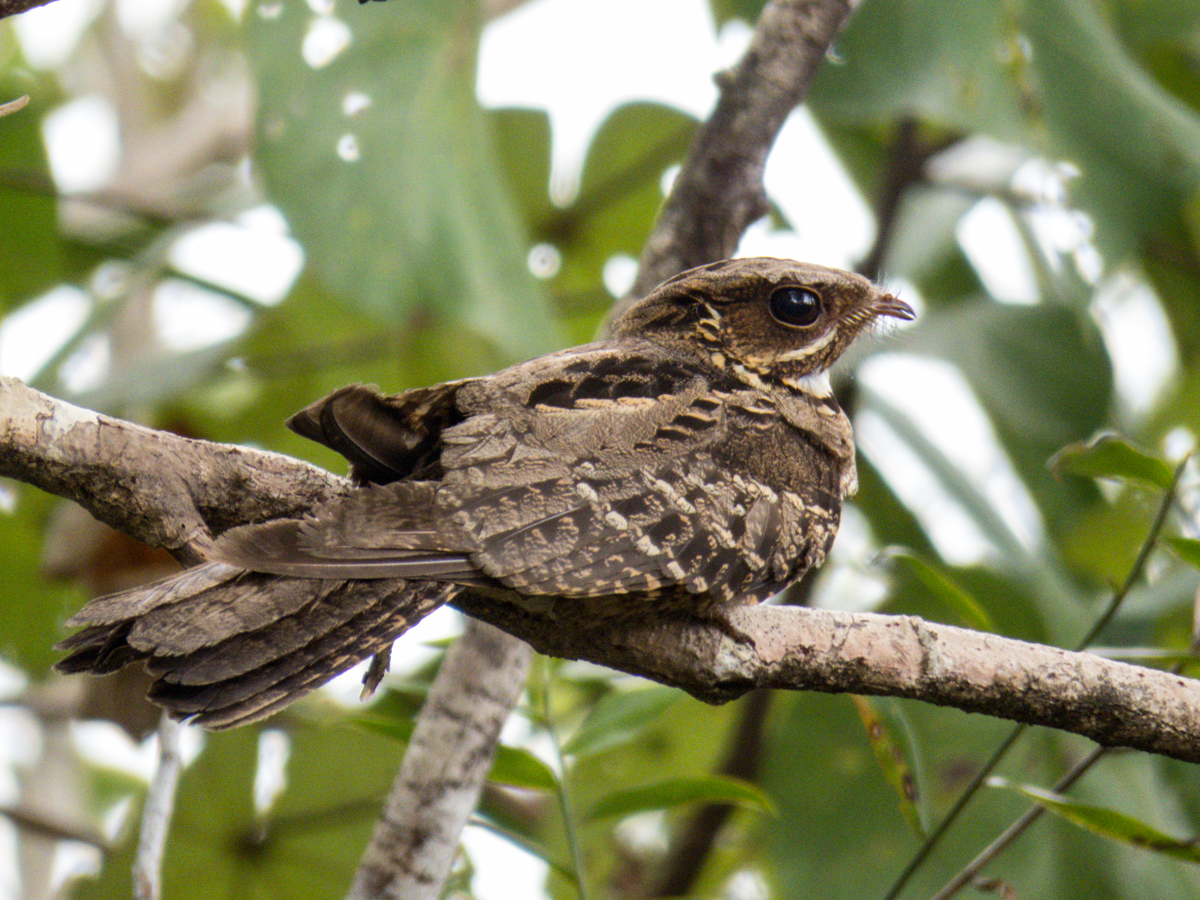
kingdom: Animalia
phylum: Chordata
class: Aves
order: Caprimulgiformes
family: Caprimulgidae
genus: Caprimulgus
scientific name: Caprimulgus macrurus
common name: Large-tailed nightjar
